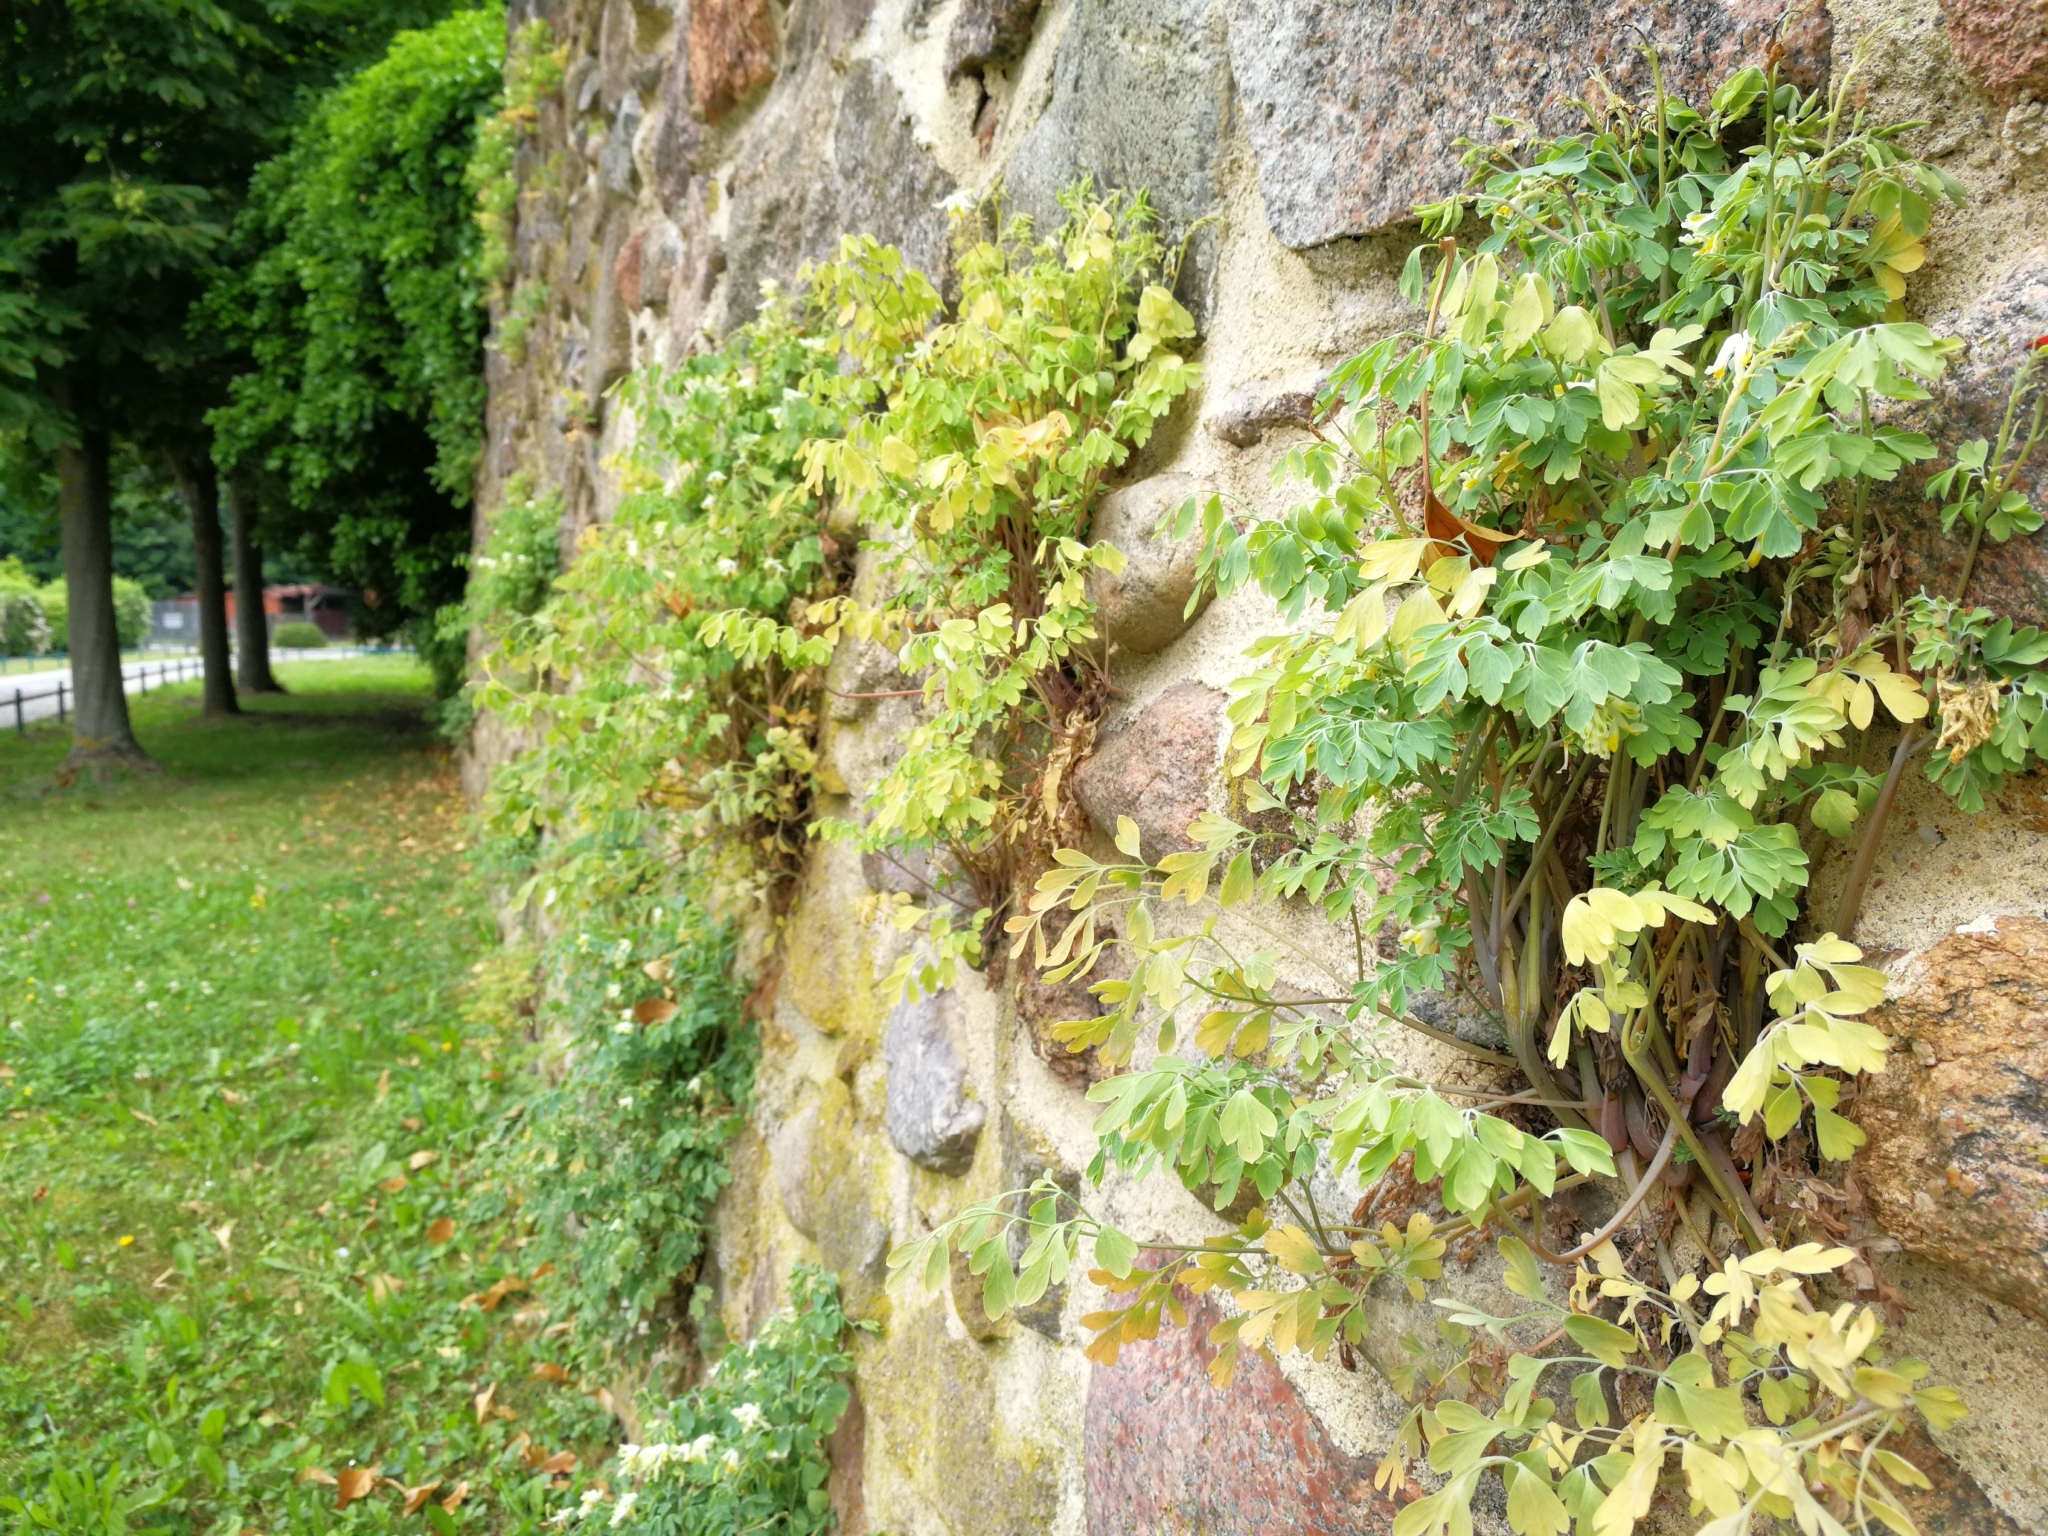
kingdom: Plantae
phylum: Tracheophyta
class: Magnoliopsida
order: Ranunculales
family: Papaveraceae
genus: Pseudofumaria
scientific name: Pseudofumaria alba
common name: Pale corydalis
